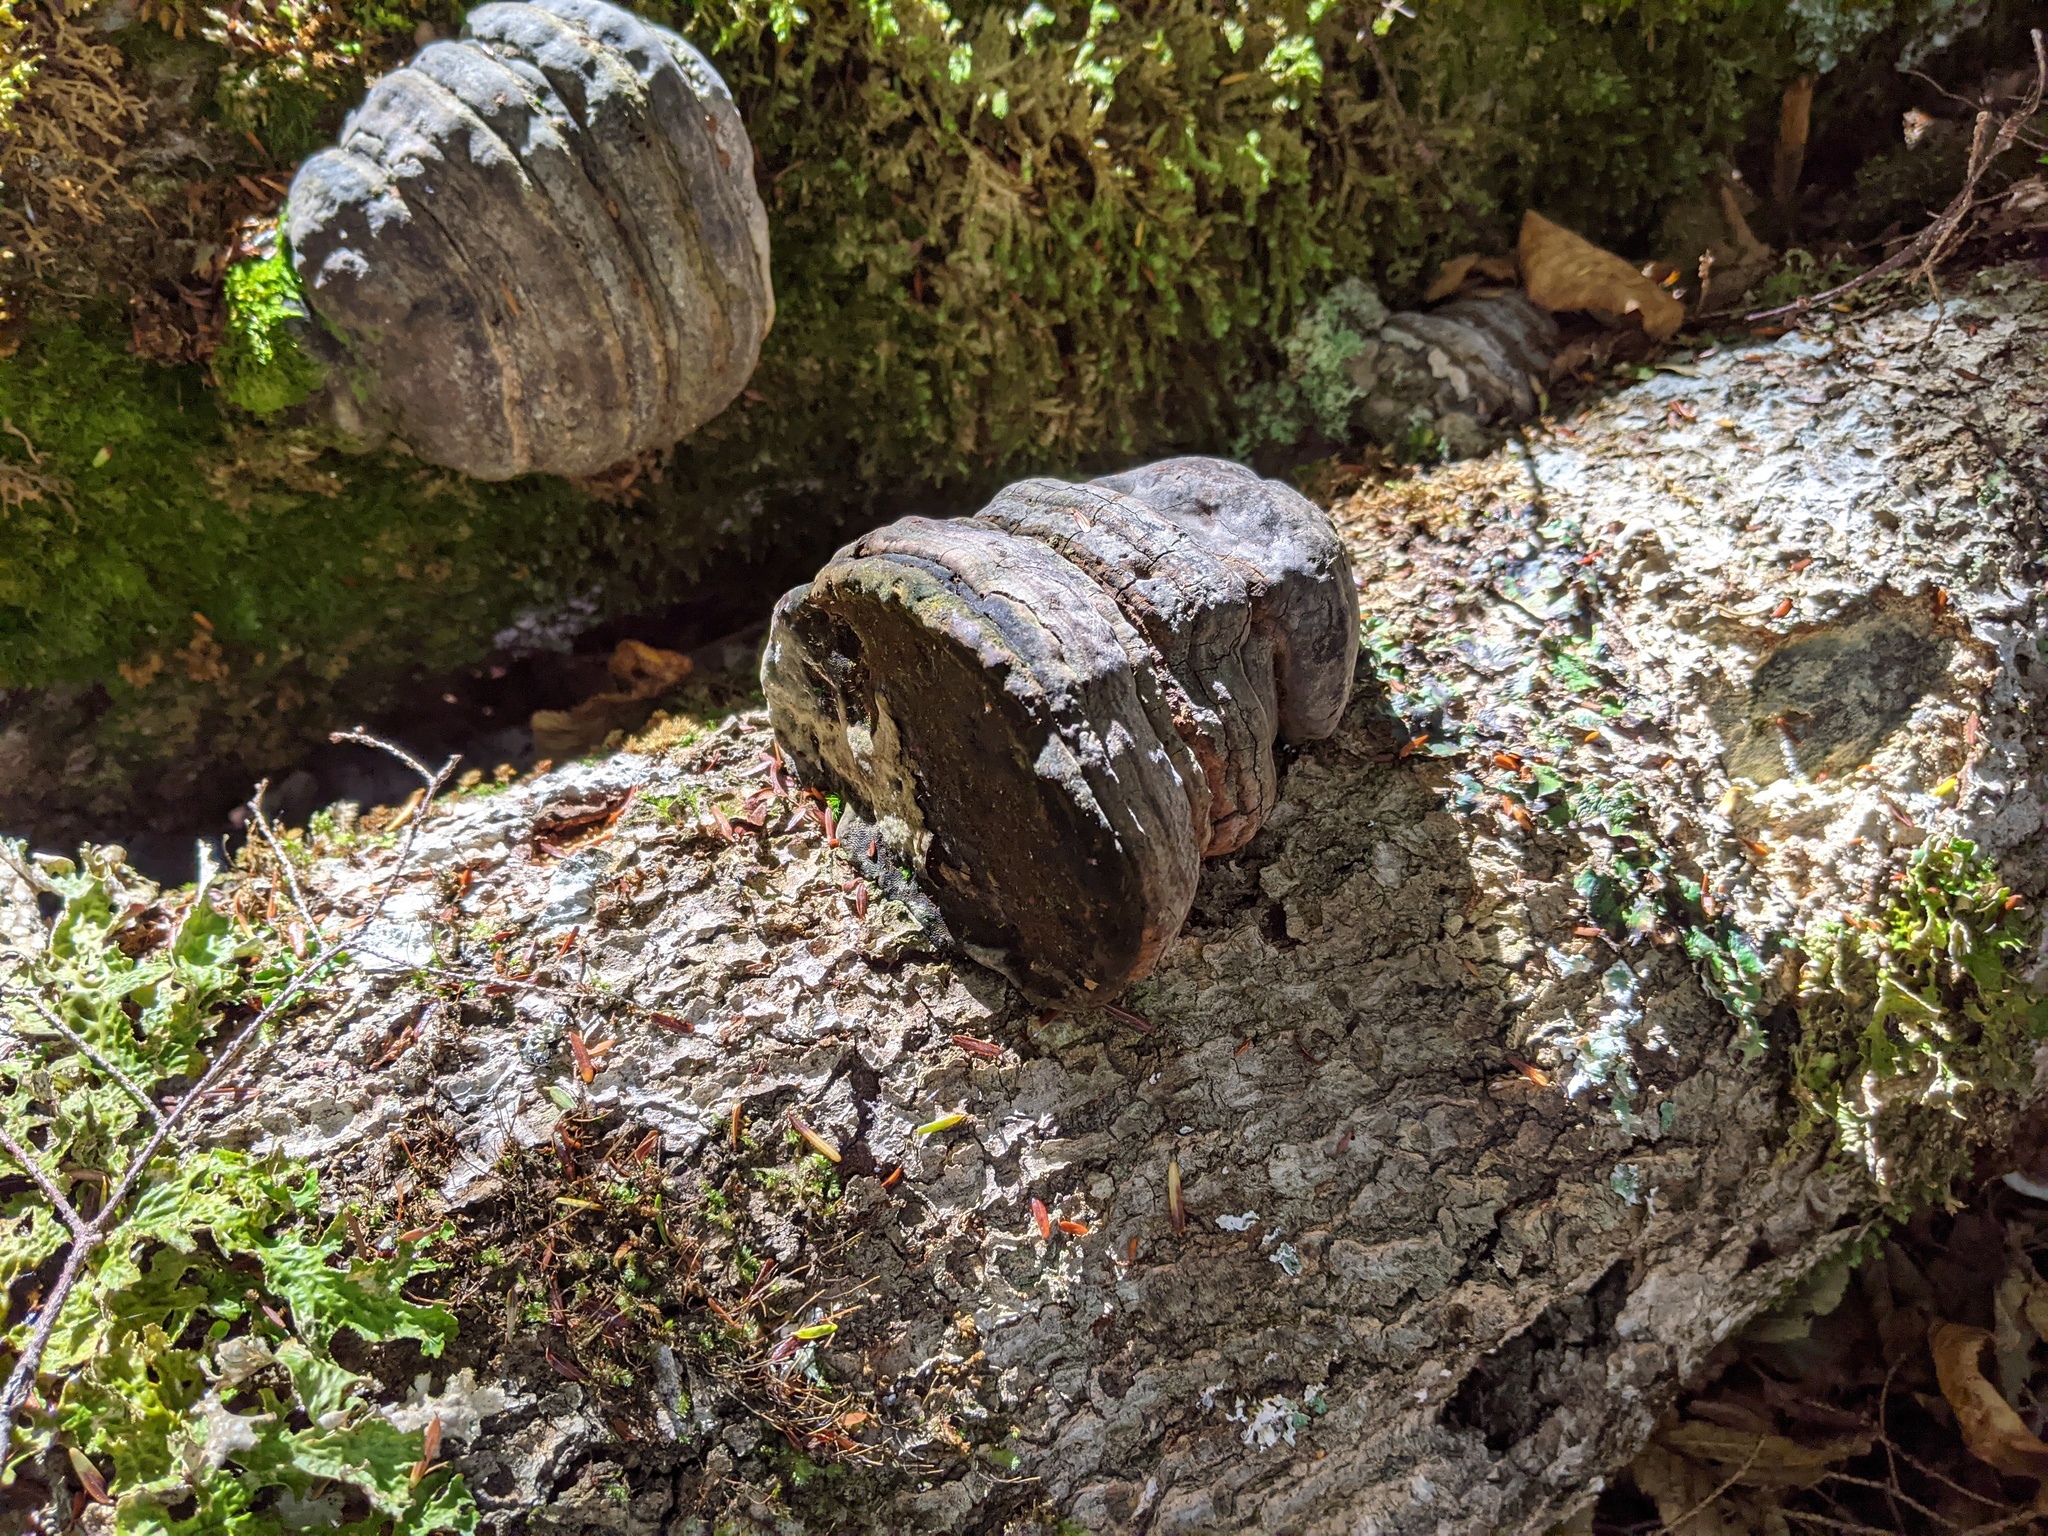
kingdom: Fungi
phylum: Basidiomycota
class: Agaricomycetes
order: Polyporales
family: Polyporaceae
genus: Fomes
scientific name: Fomes fomentarius
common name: Hoof fungus
